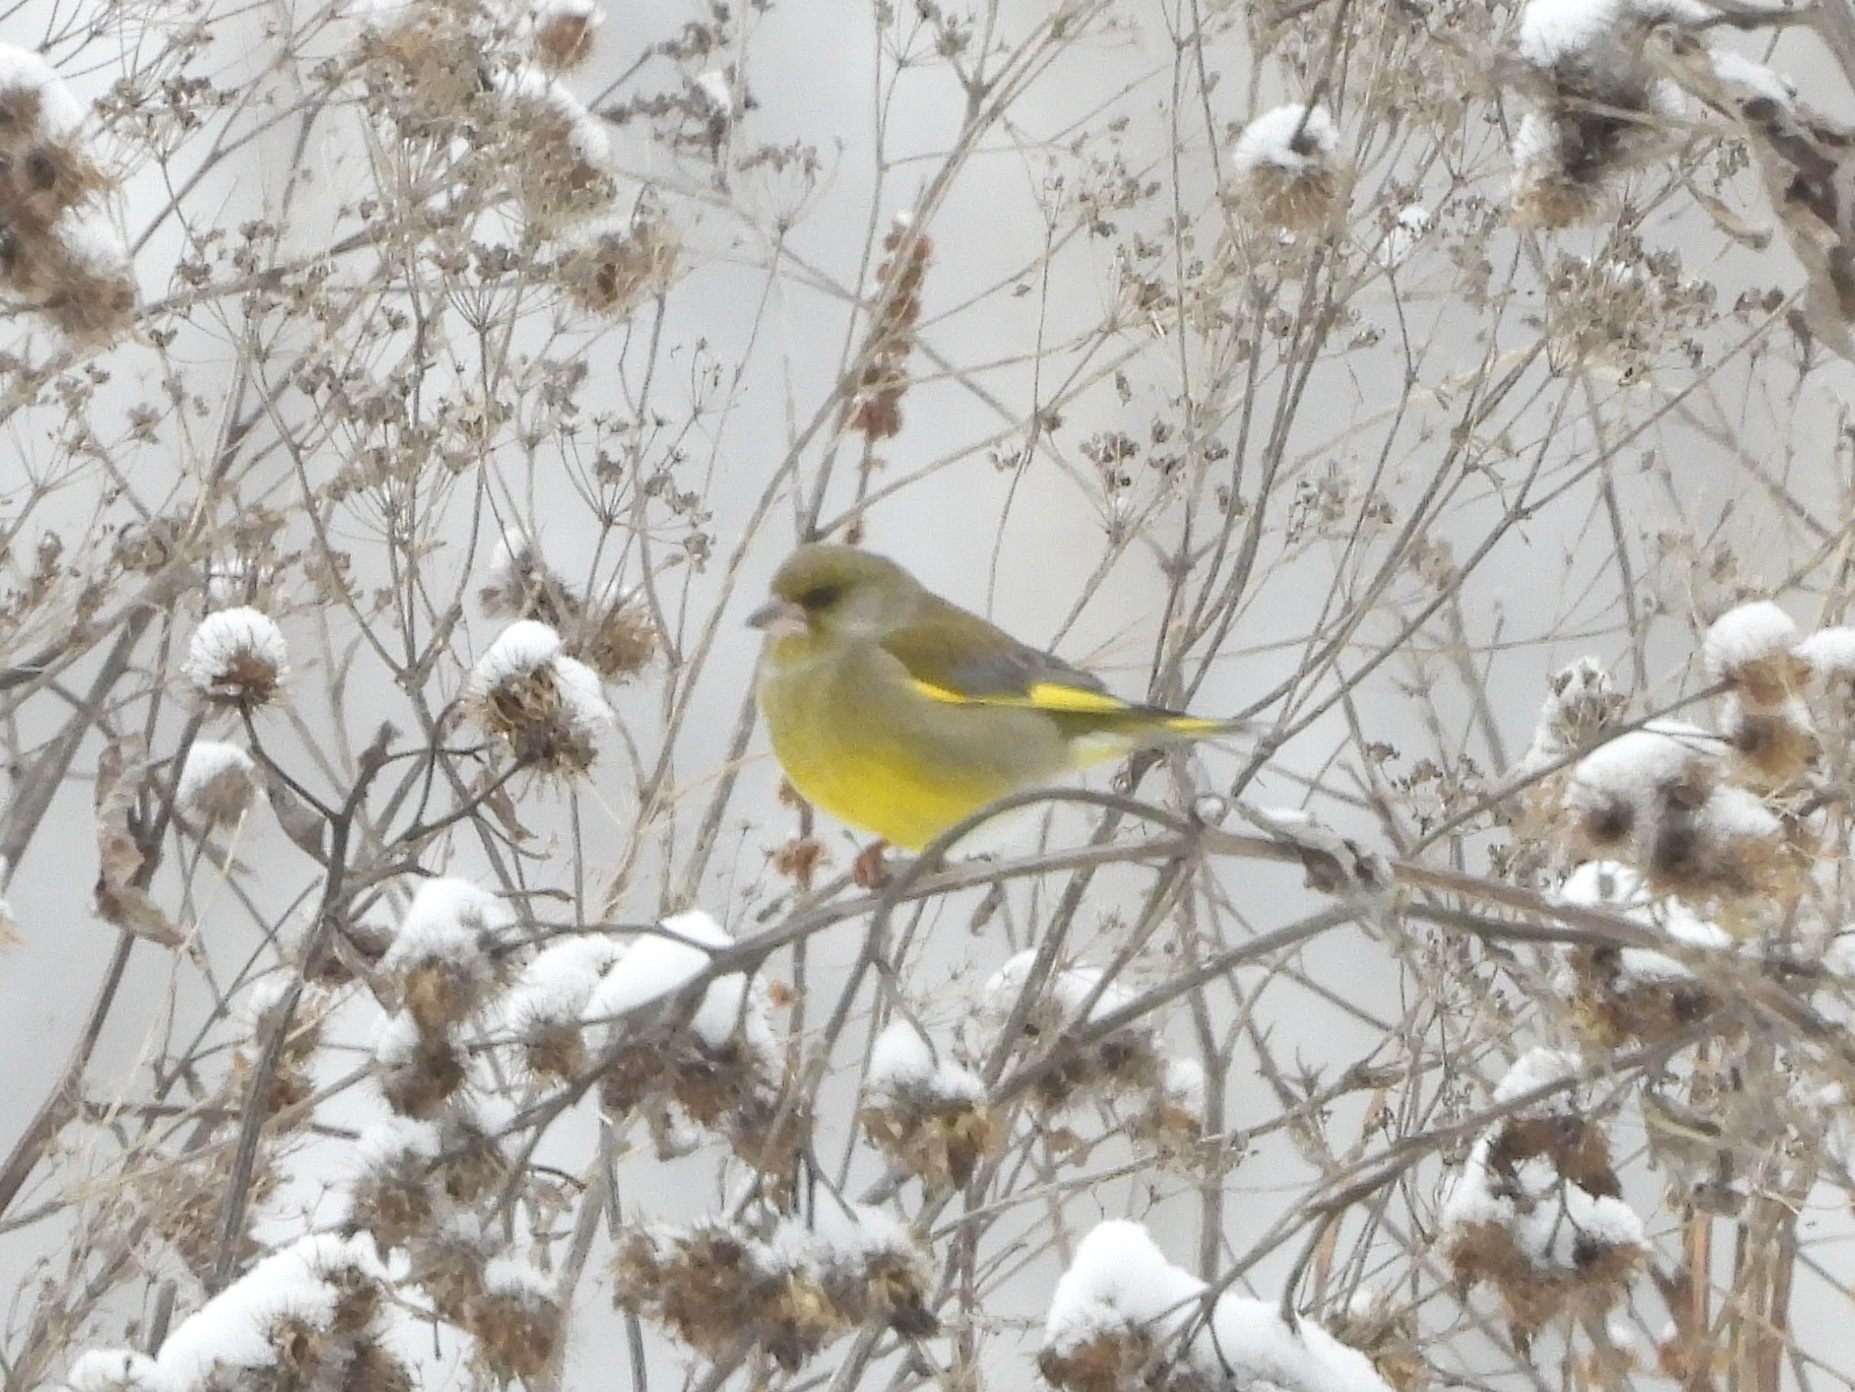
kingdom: Plantae
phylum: Tracheophyta
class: Liliopsida
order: Poales
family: Poaceae
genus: Chloris
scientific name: Chloris chloris
